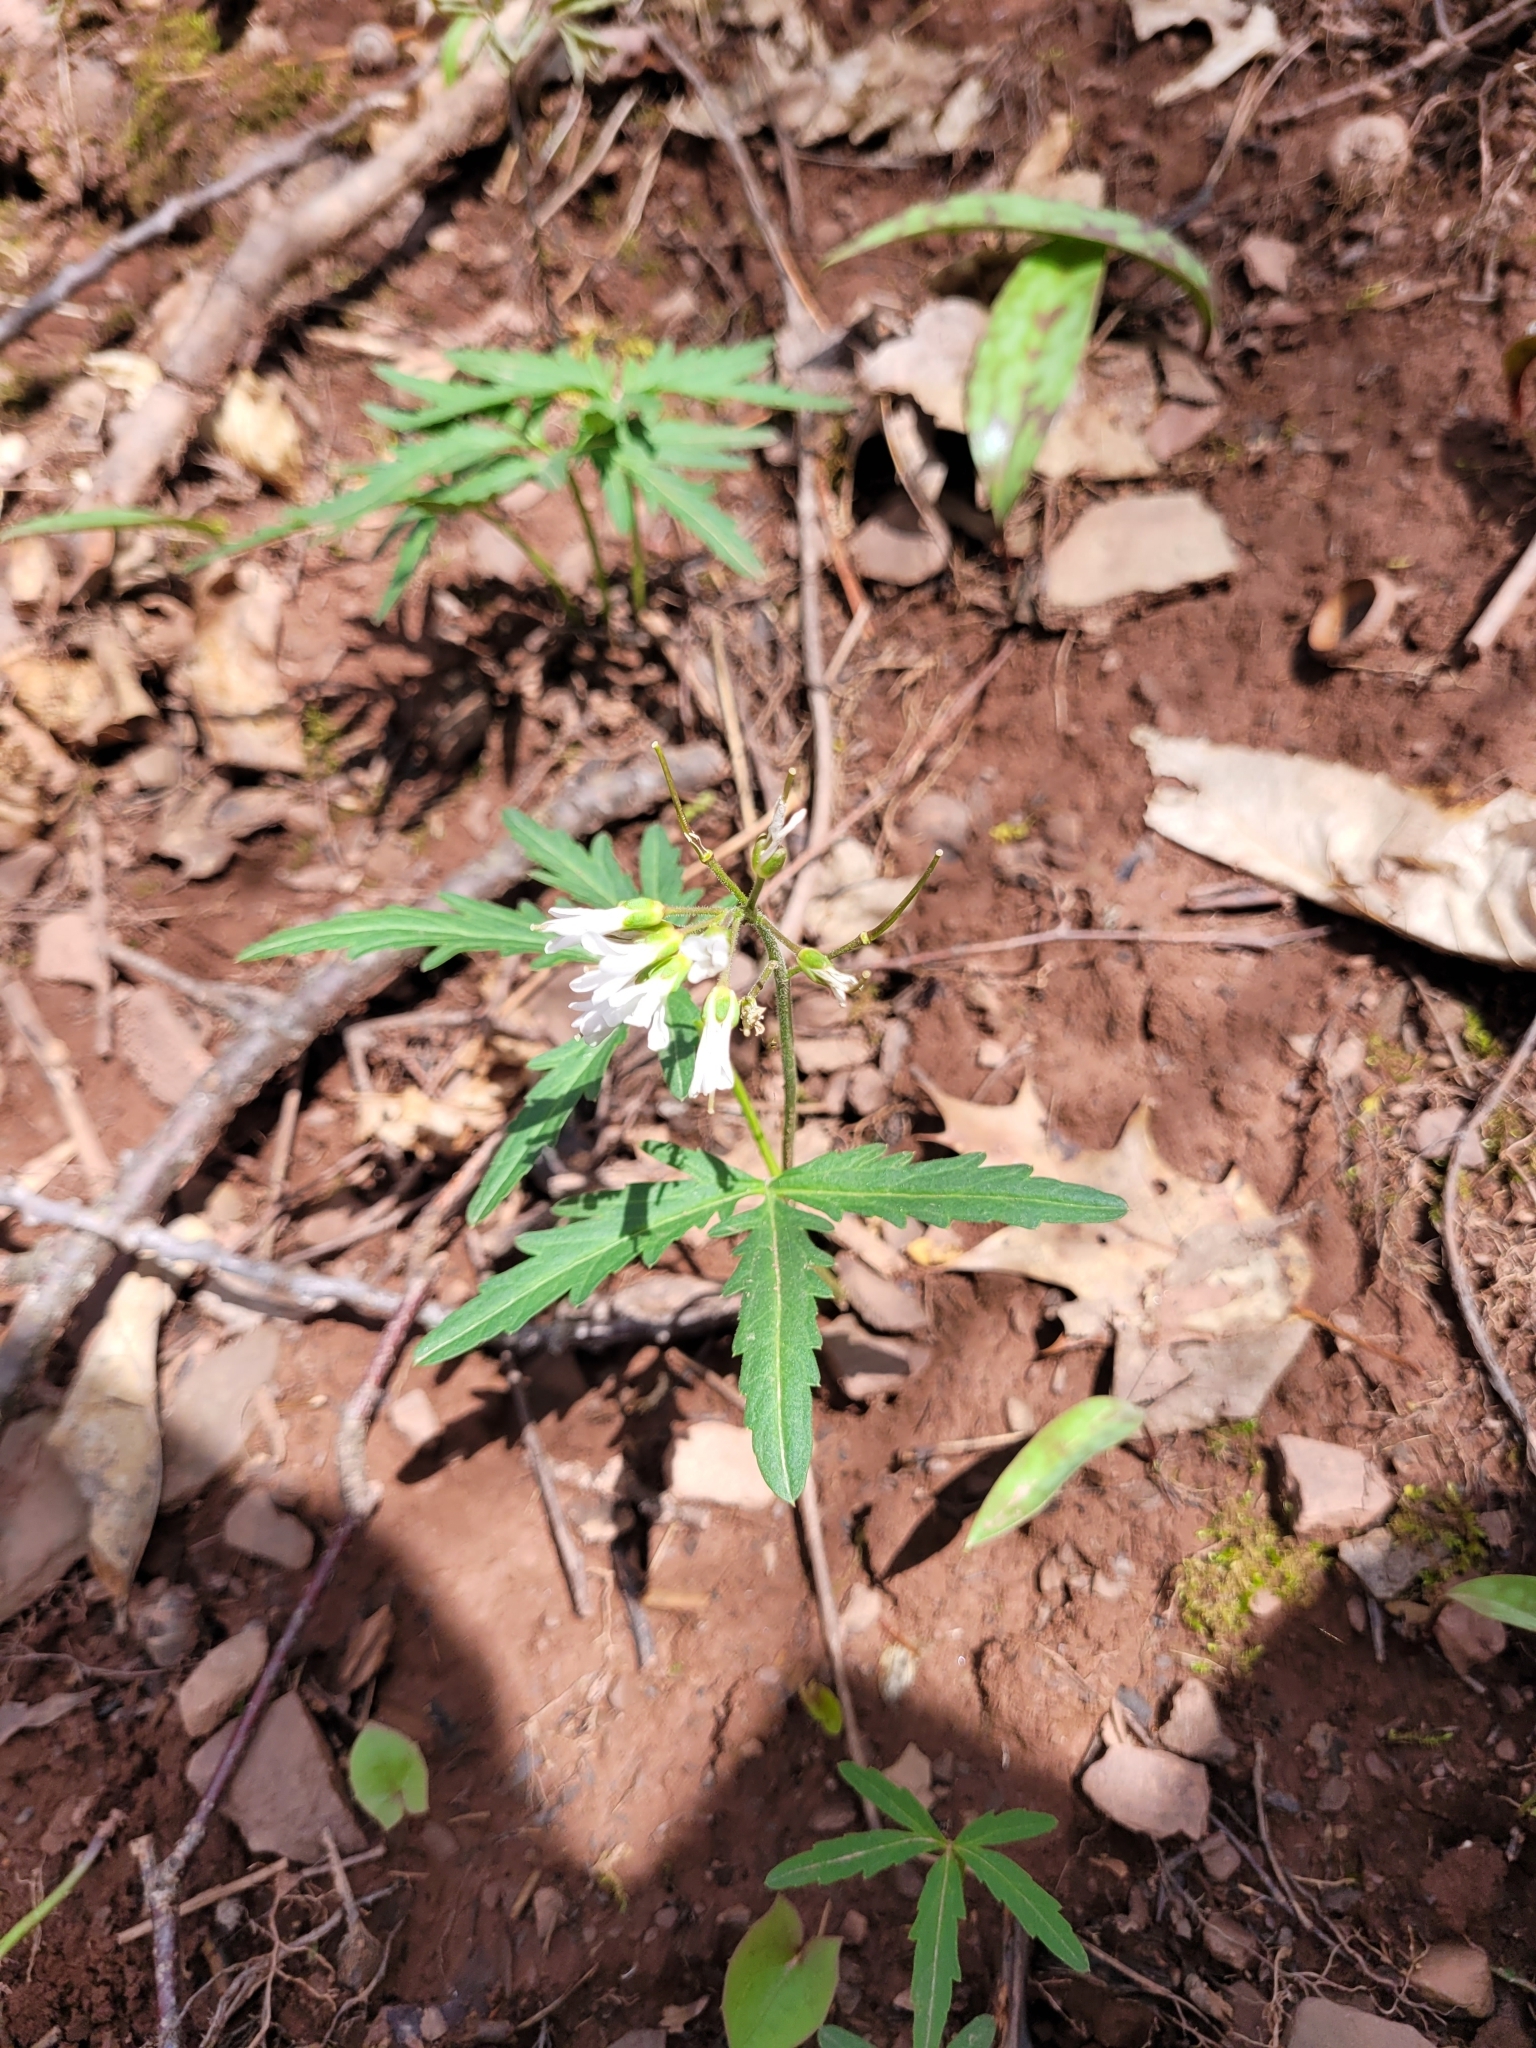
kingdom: Plantae
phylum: Tracheophyta
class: Magnoliopsida
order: Brassicales
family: Brassicaceae
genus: Cardamine
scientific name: Cardamine concatenata
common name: Cut-leaf toothcup
